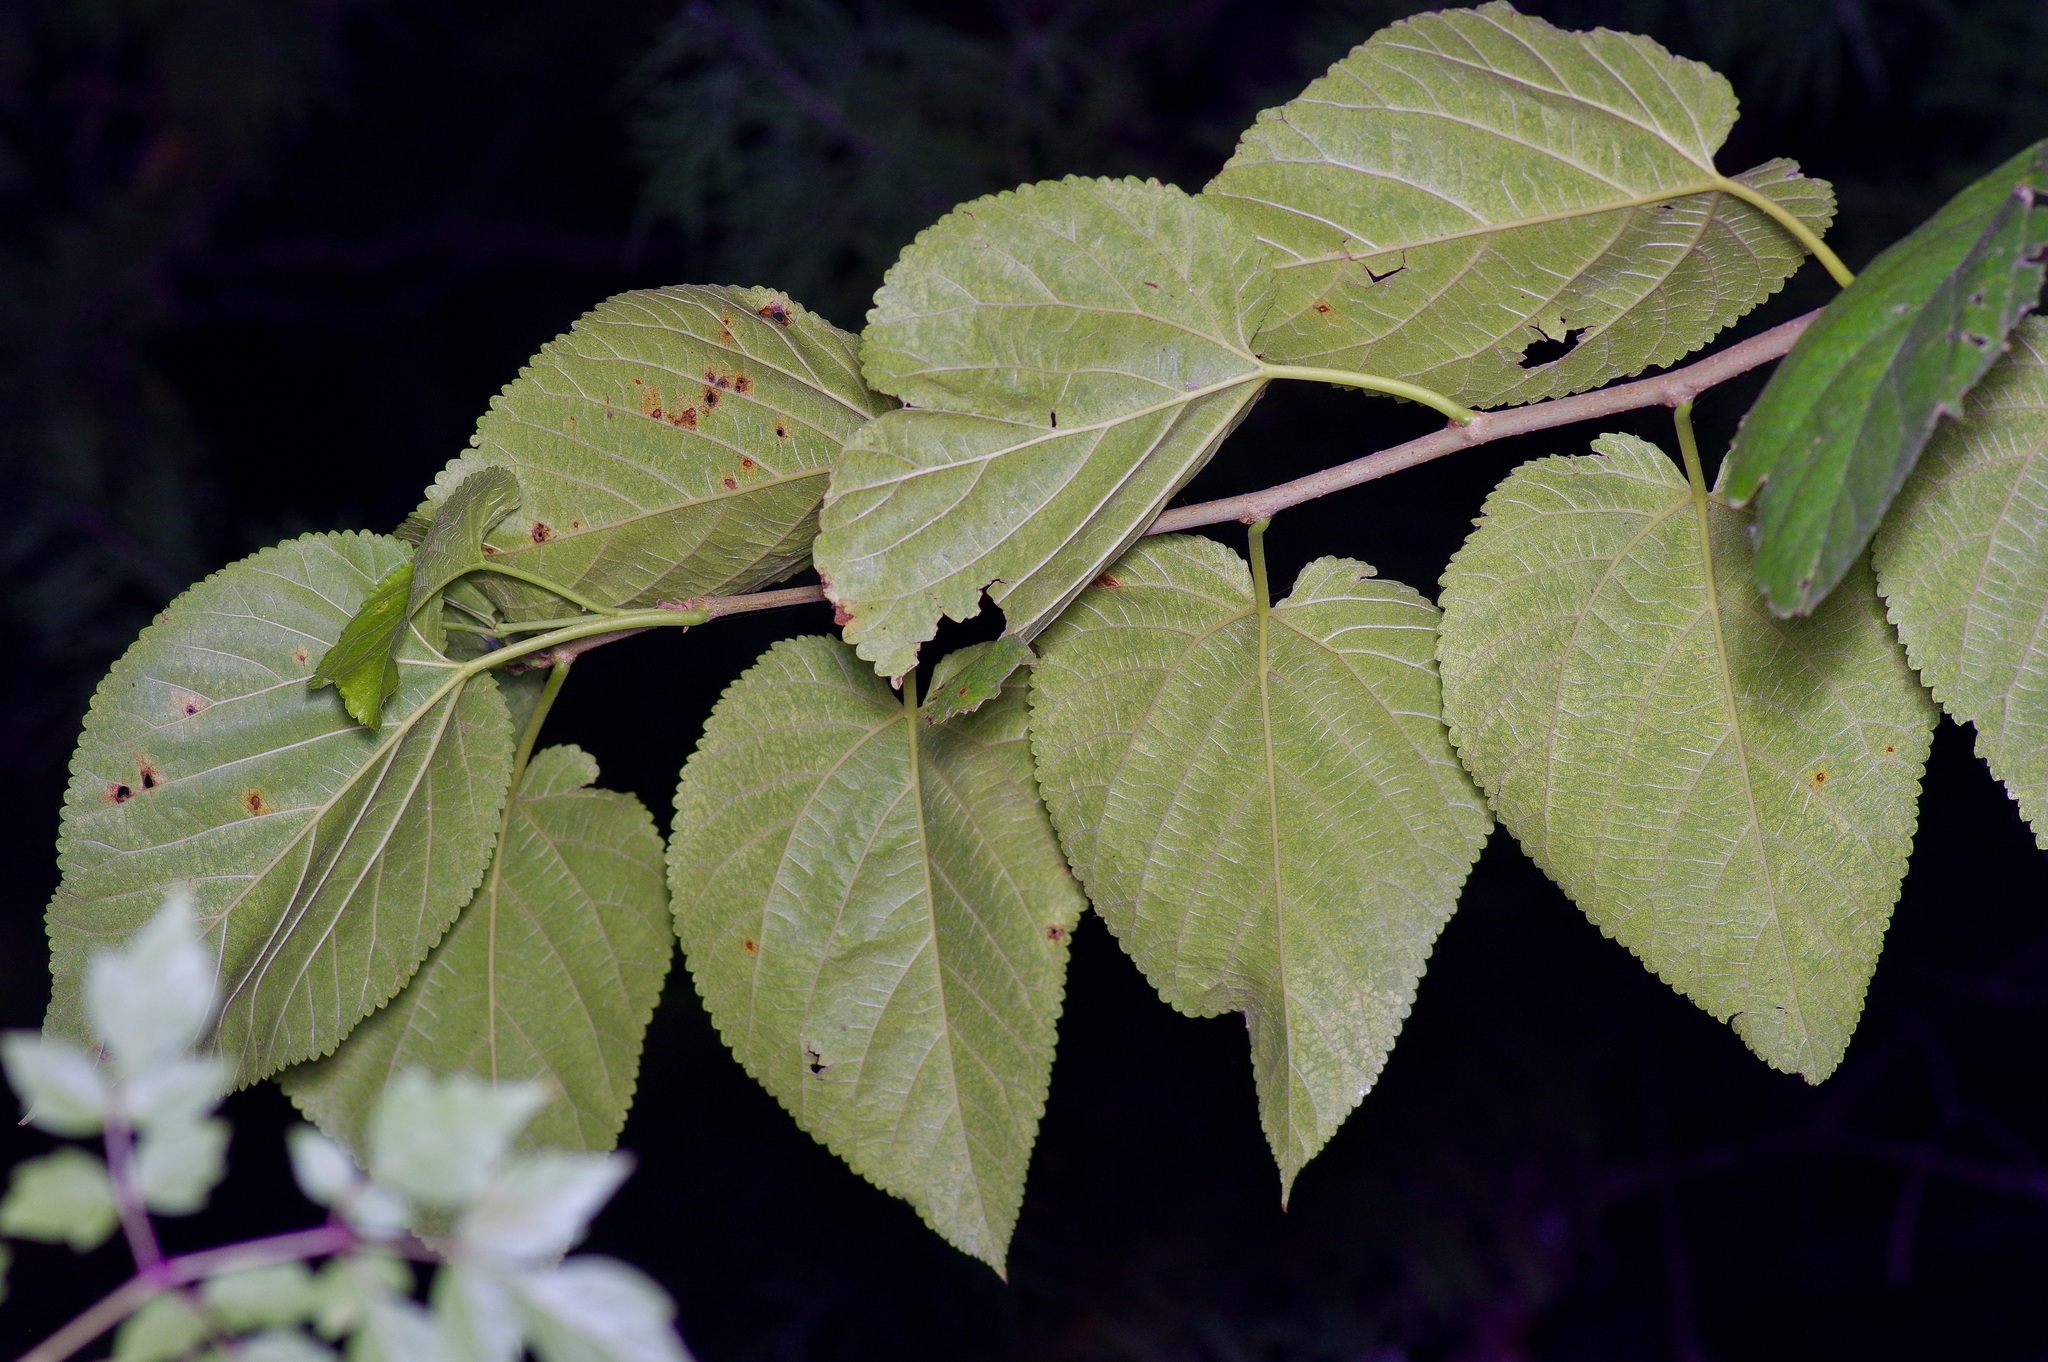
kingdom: Plantae
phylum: Tracheophyta
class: Magnoliopsida
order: Rosales
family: Moraceae
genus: Morus
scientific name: Morus rubra
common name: Red mulberry
